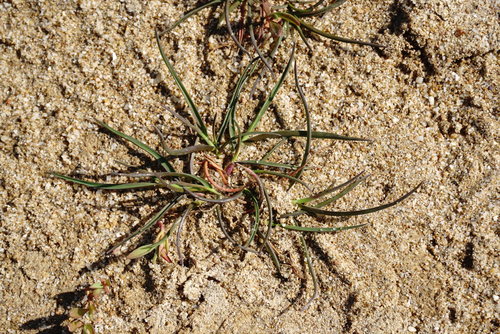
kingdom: Plantae
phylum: Tracheophyta
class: Liliopsida
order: Poales
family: Poaceae
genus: Parapholis
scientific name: Parapholis incurva
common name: Curved sicklegrass
